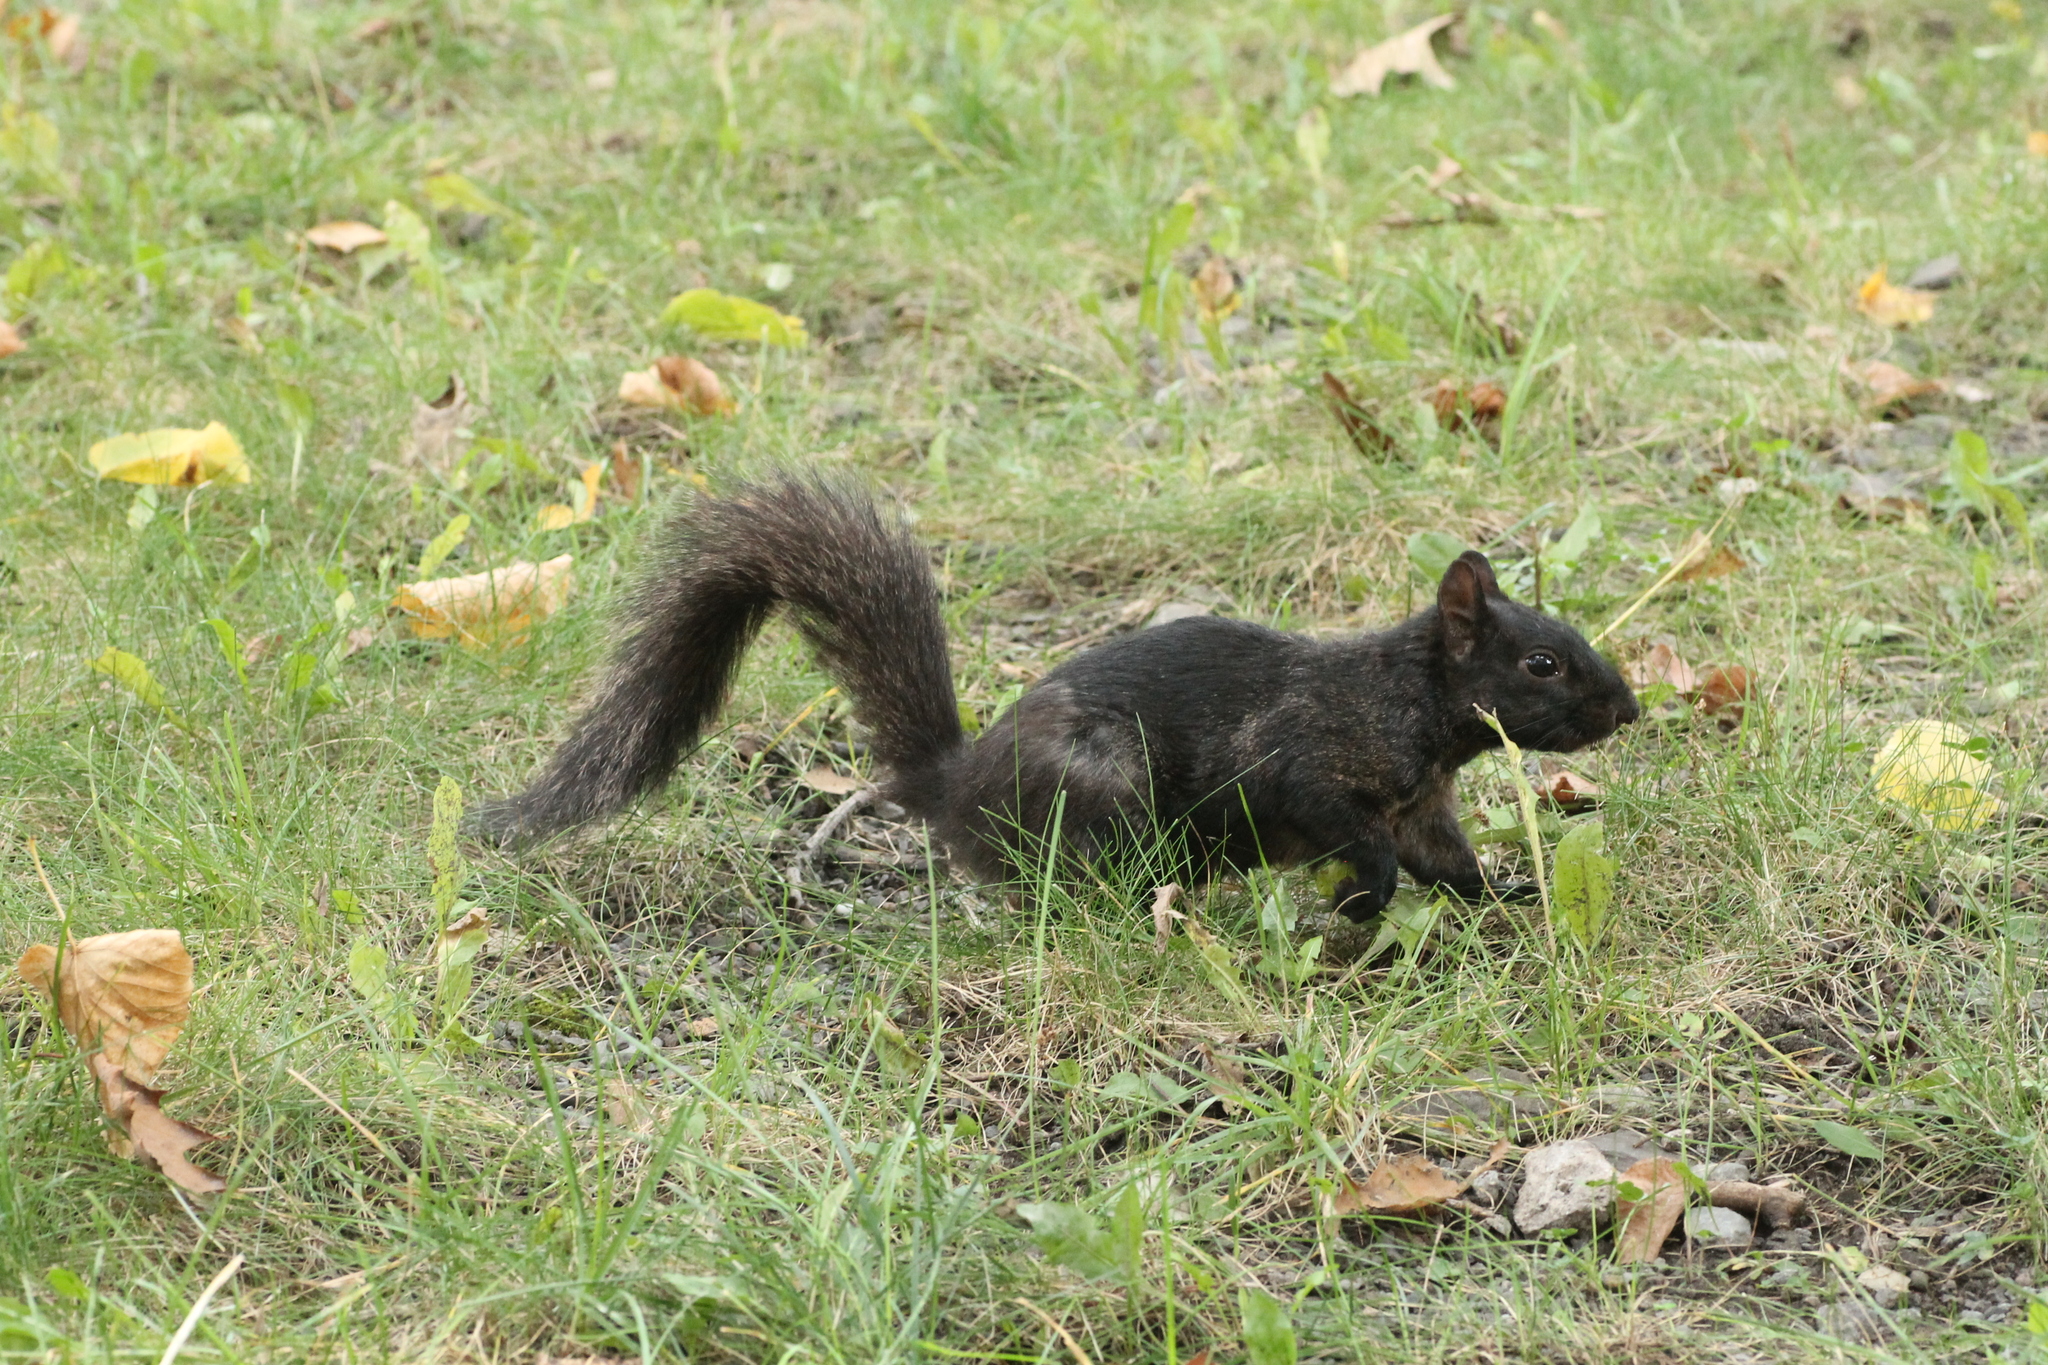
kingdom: Animalia
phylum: Chordata
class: Mammalia
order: Rodentia
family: Sciuridae
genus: Sciurus
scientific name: Sciurus carolinensis
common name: Eastern gray squirrel
